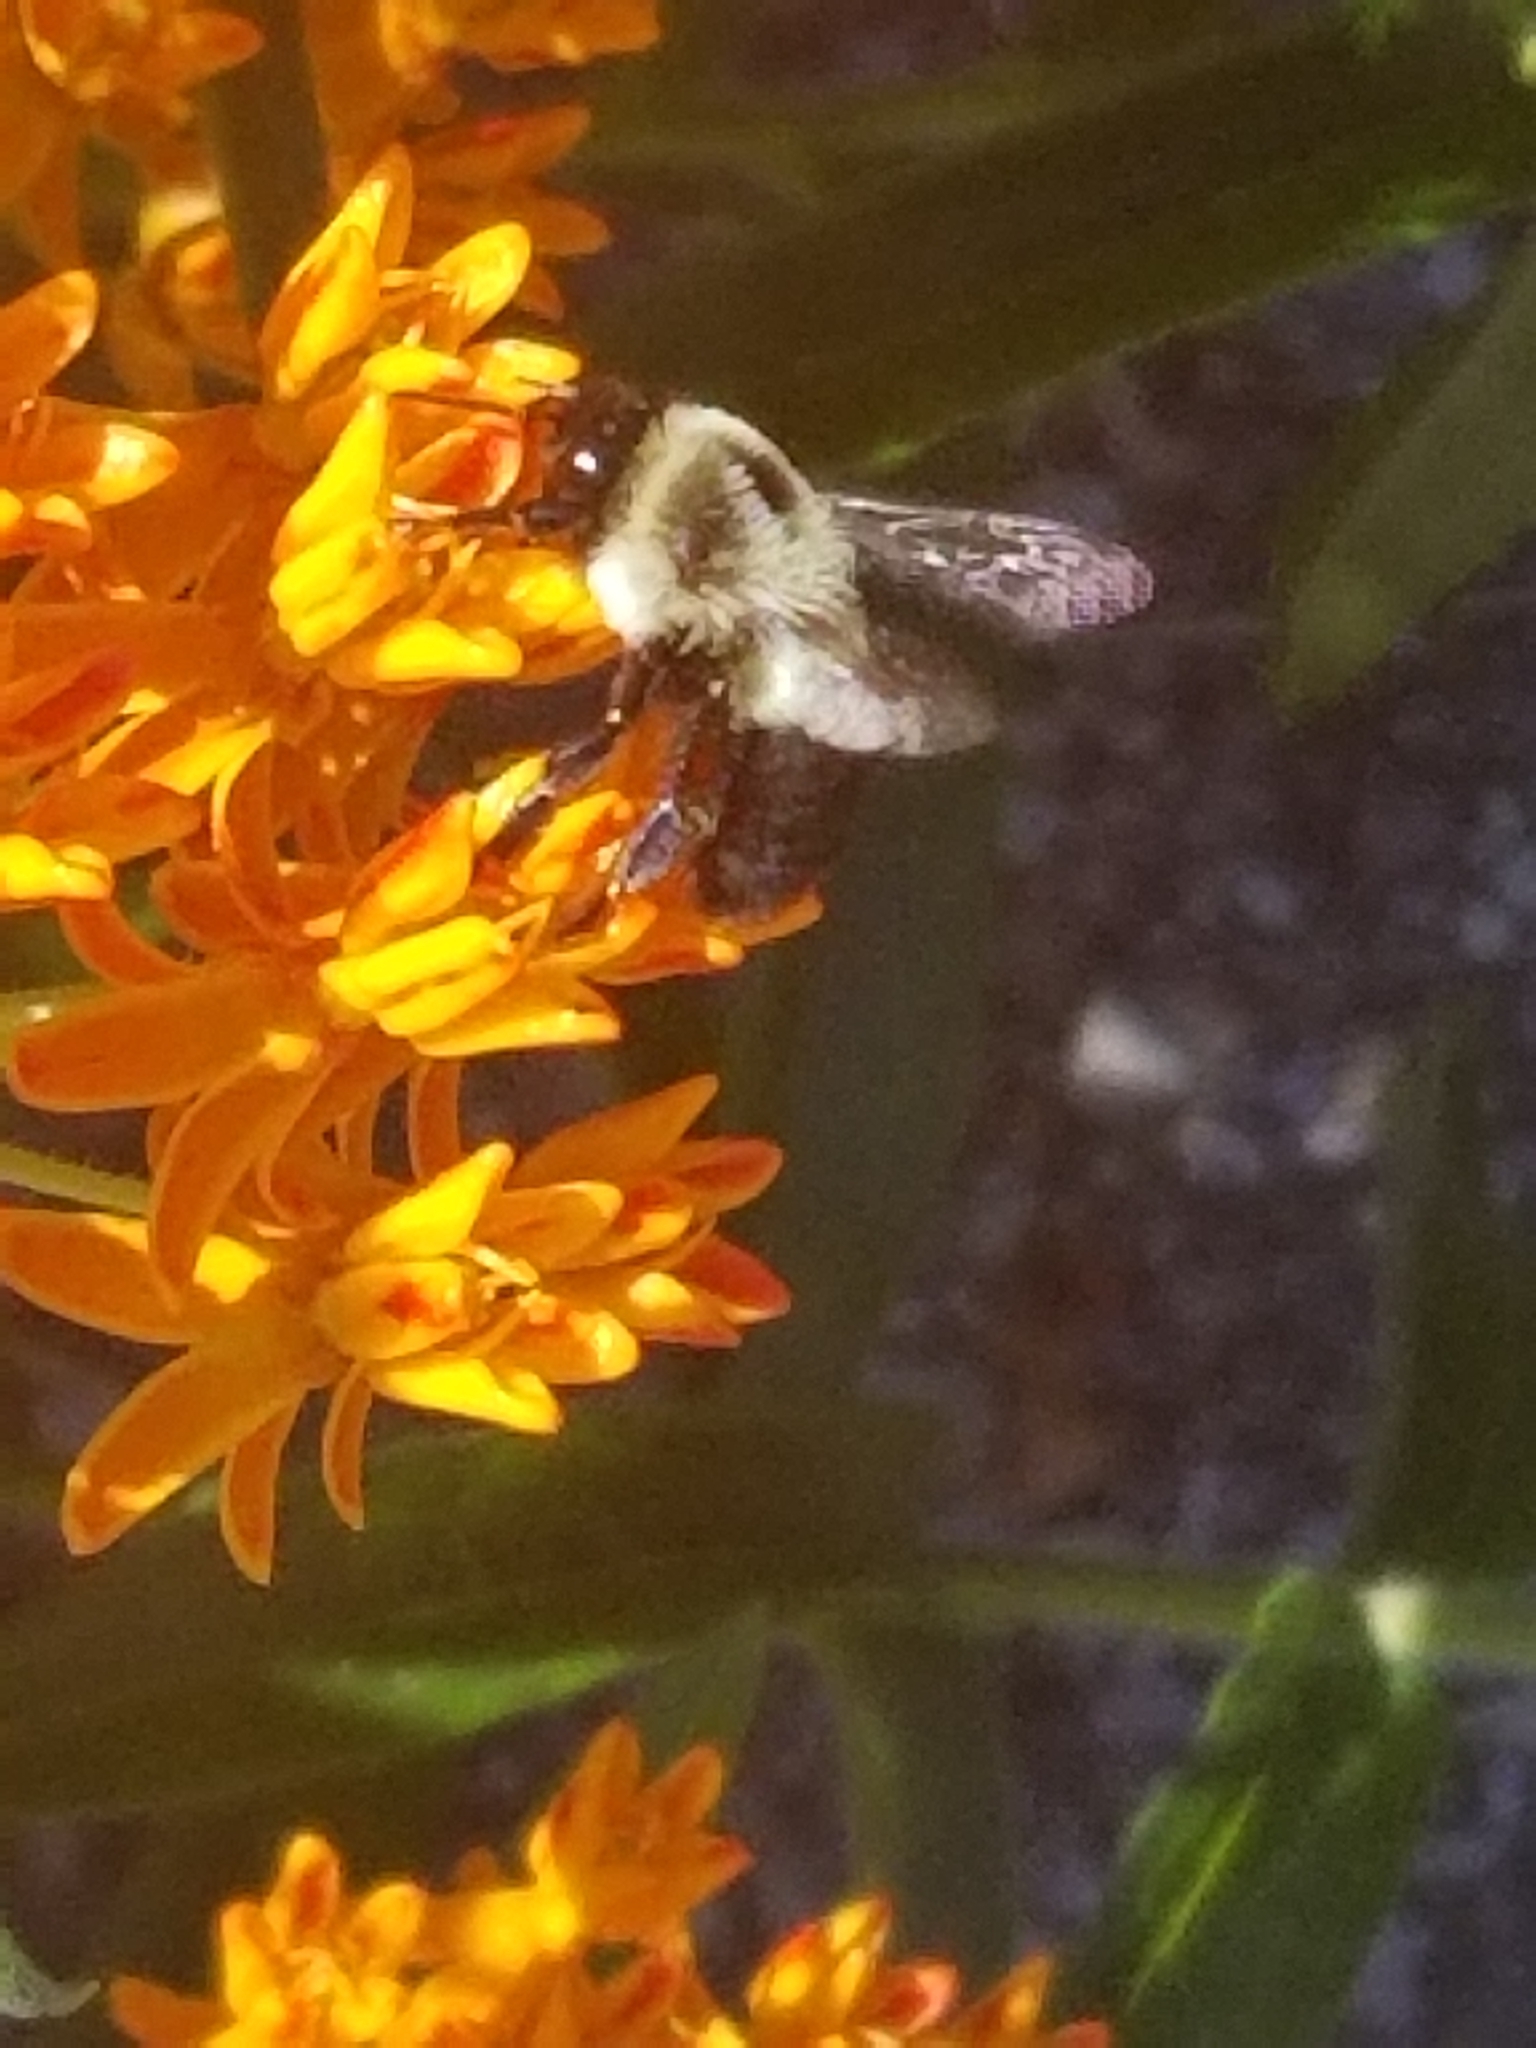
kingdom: Animalia
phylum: Arthropoda
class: Insecta
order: Hymenoptera
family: Apidae
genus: Bombus
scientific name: Bombus impatiens
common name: Common eastern bumble bee
